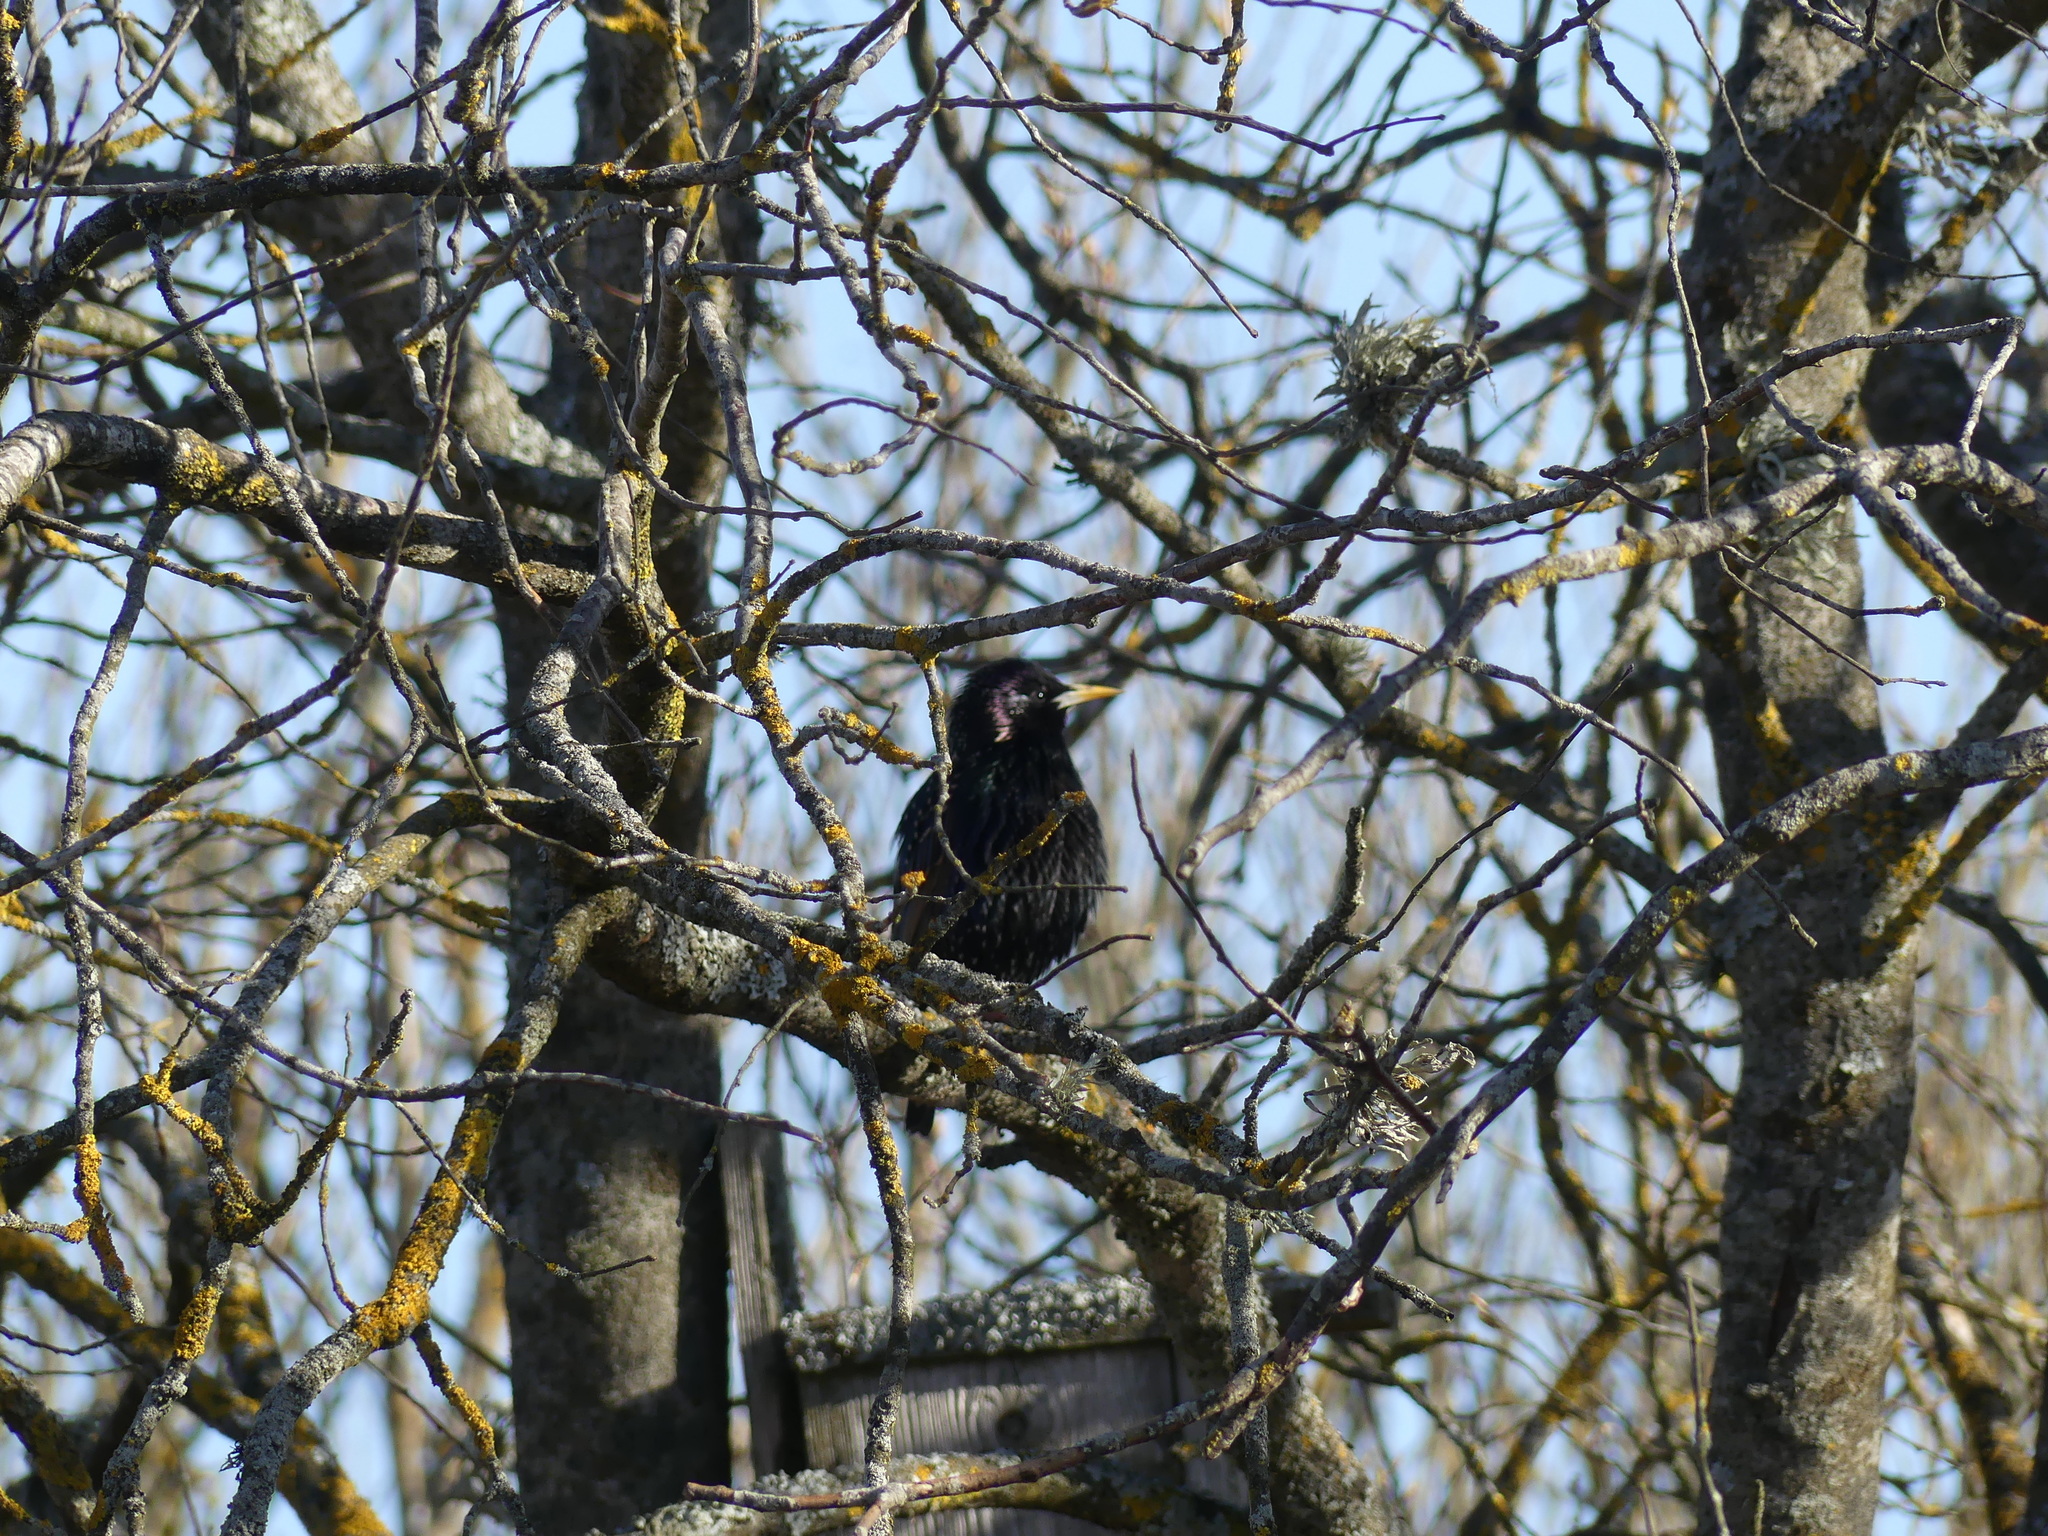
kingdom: Animalia
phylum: Chordata
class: Aves
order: Passeriformes
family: Sturnidae
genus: Sturnus
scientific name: Sturnus vulgaris
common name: Common starling
